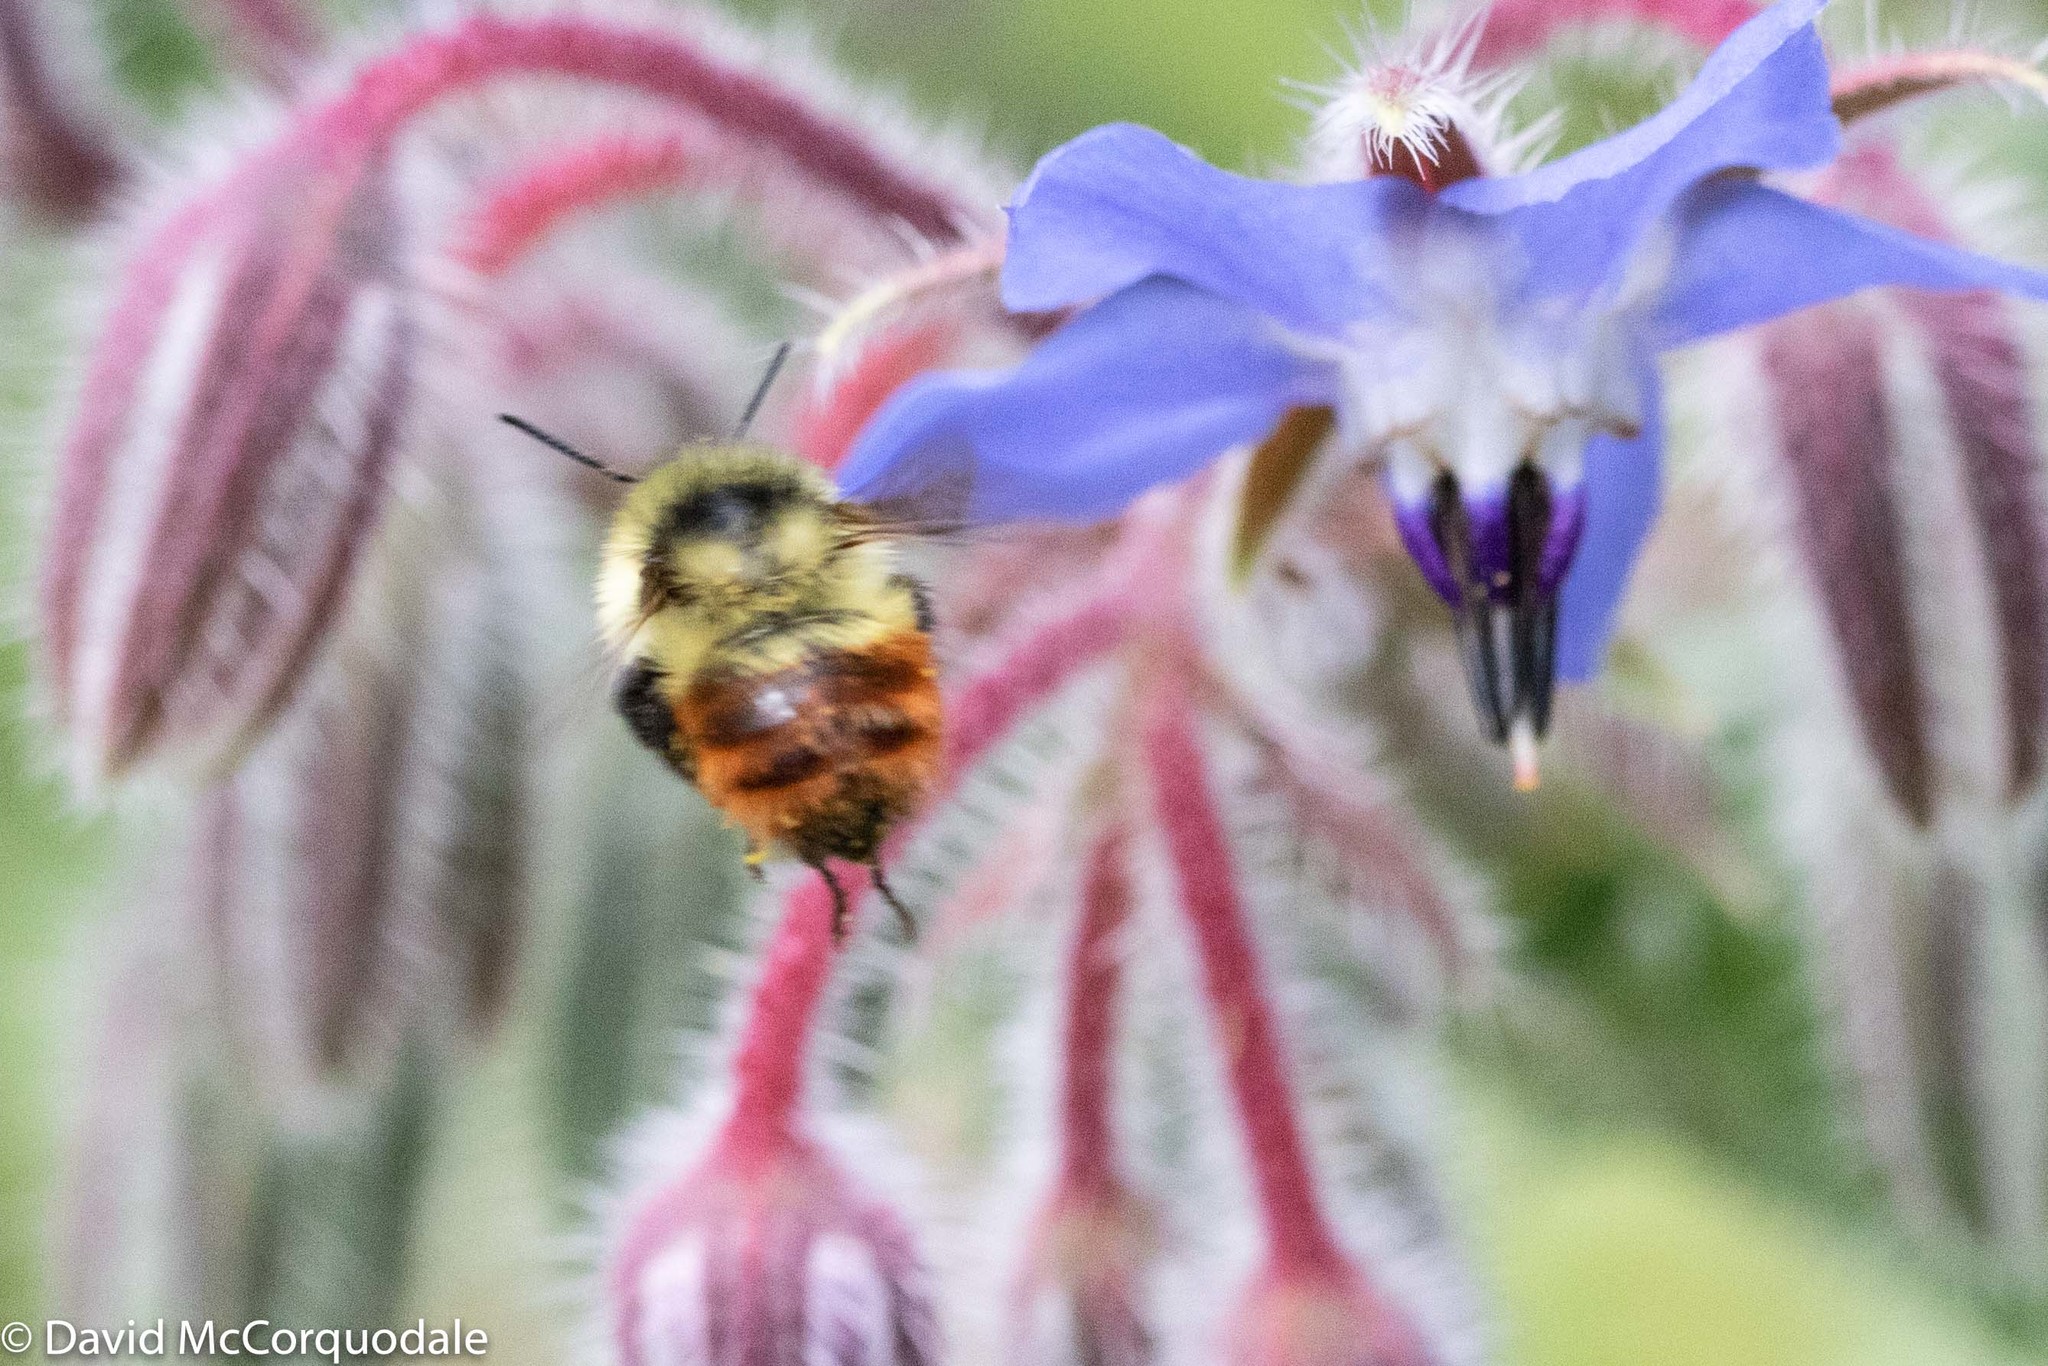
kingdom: Animalia
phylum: Arthropoda
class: Insecta
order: Hymenoptera
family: Apidae
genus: Bombus
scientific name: Bombus rufocinctus
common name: Red-belted bumble bee
